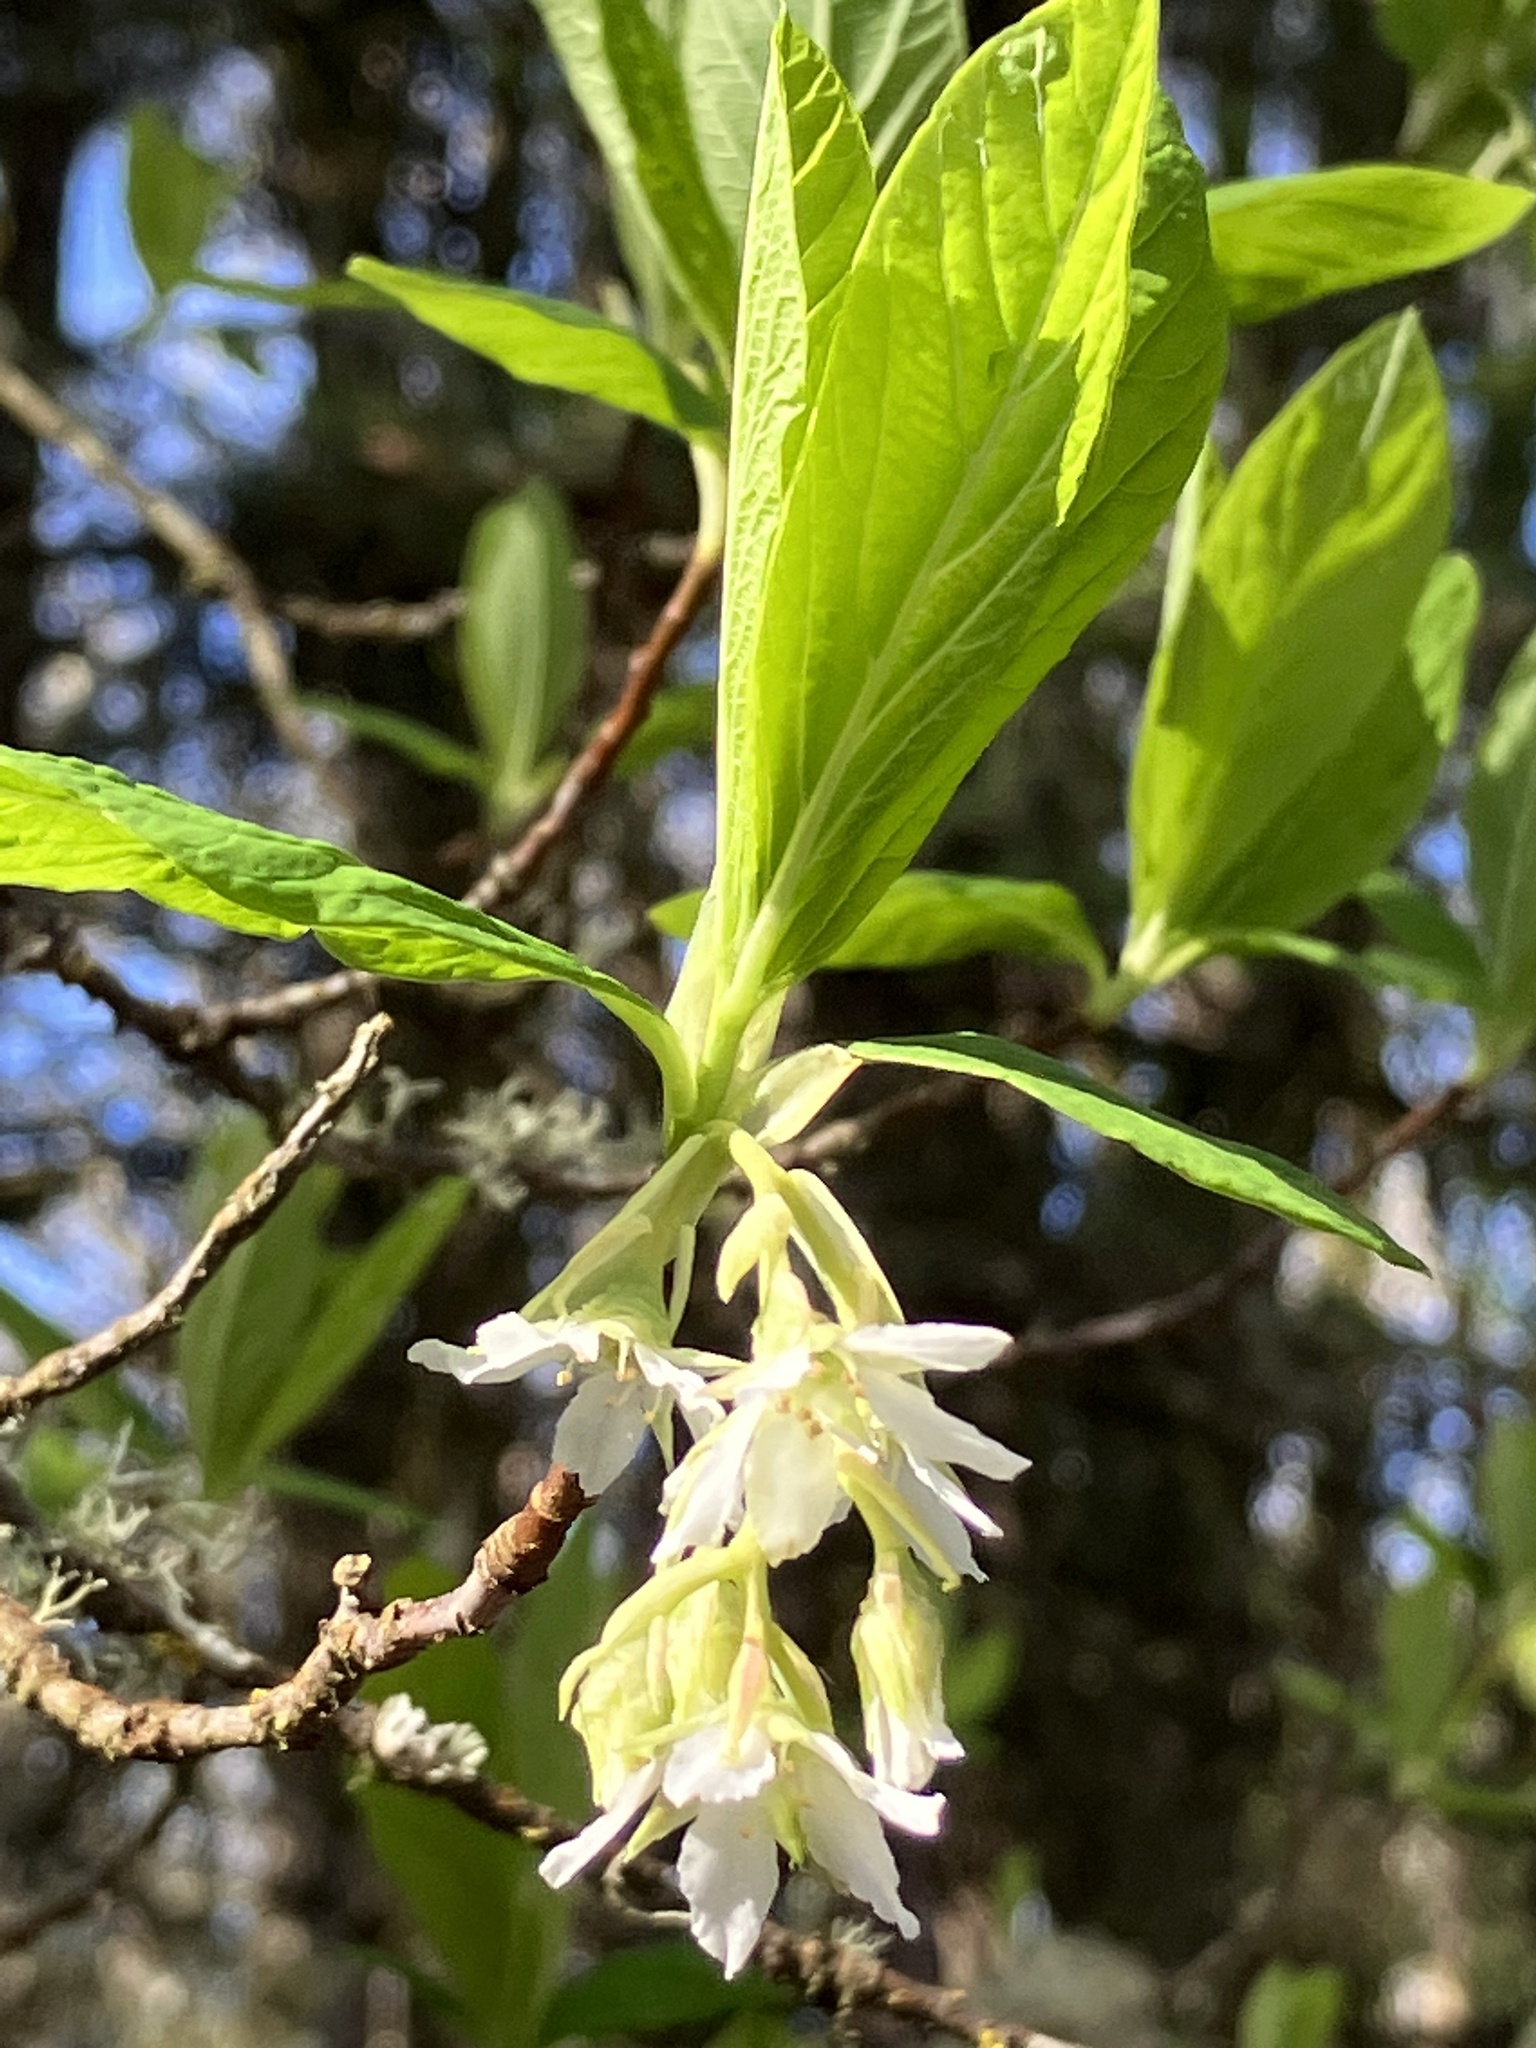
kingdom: Plantae
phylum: Tracheophyta
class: Magnoliopsida
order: Rosales
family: Rosaceae
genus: Oemleria
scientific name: Oemleria cerasiformis
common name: Osoberry
